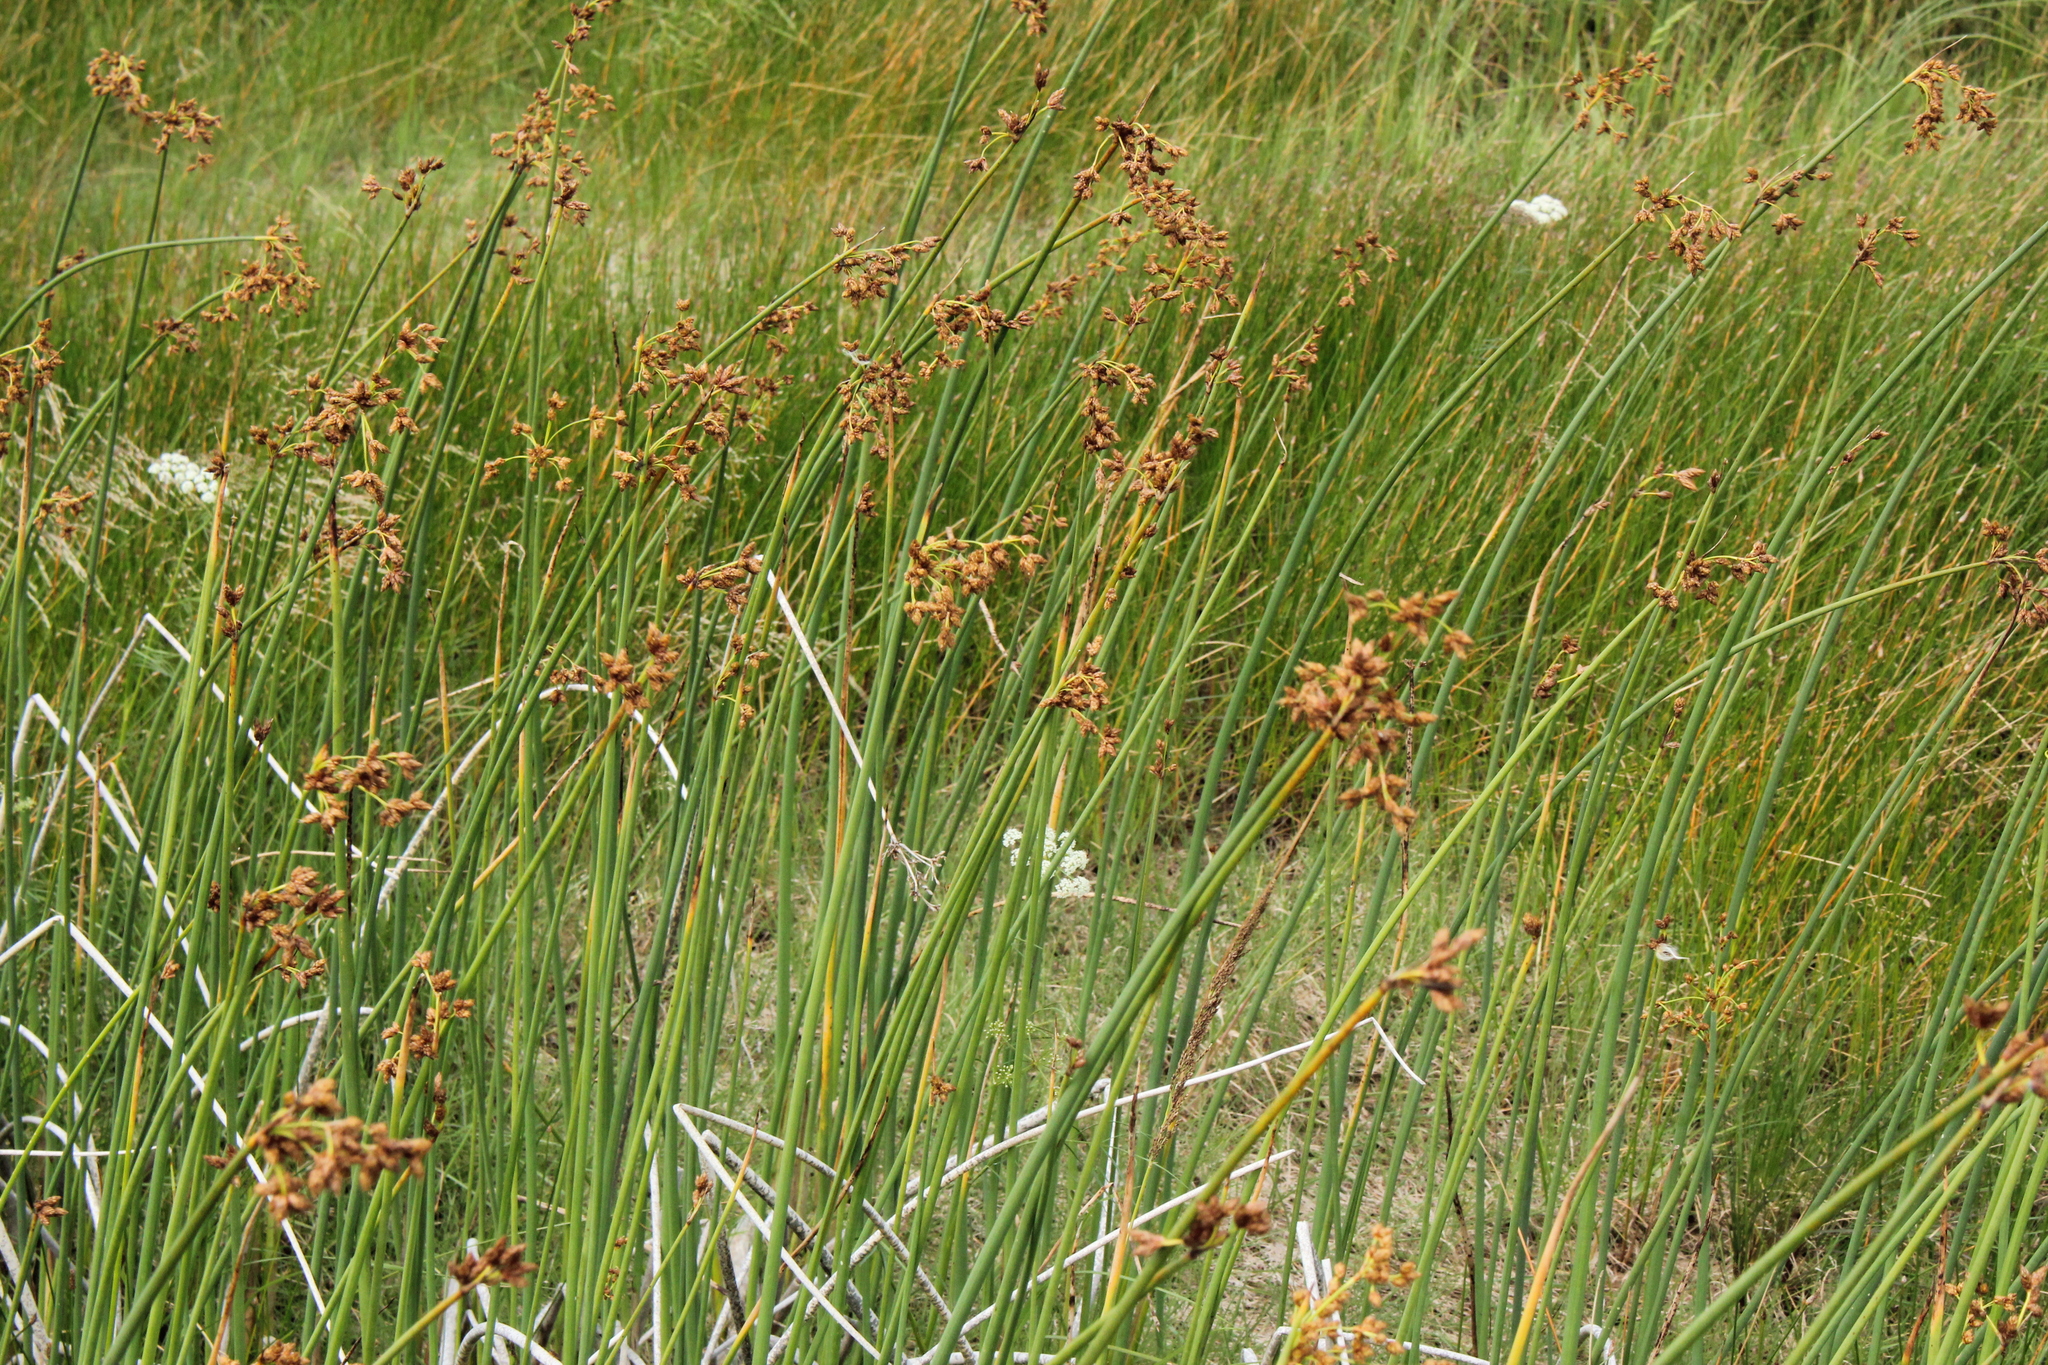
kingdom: Plantae
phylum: Tracheophyta
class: Liliopsida
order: Poales
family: Cyperaceae
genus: Schoenoplectus
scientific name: Schoenoplectus tabernaemontani
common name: Grey club-rush
